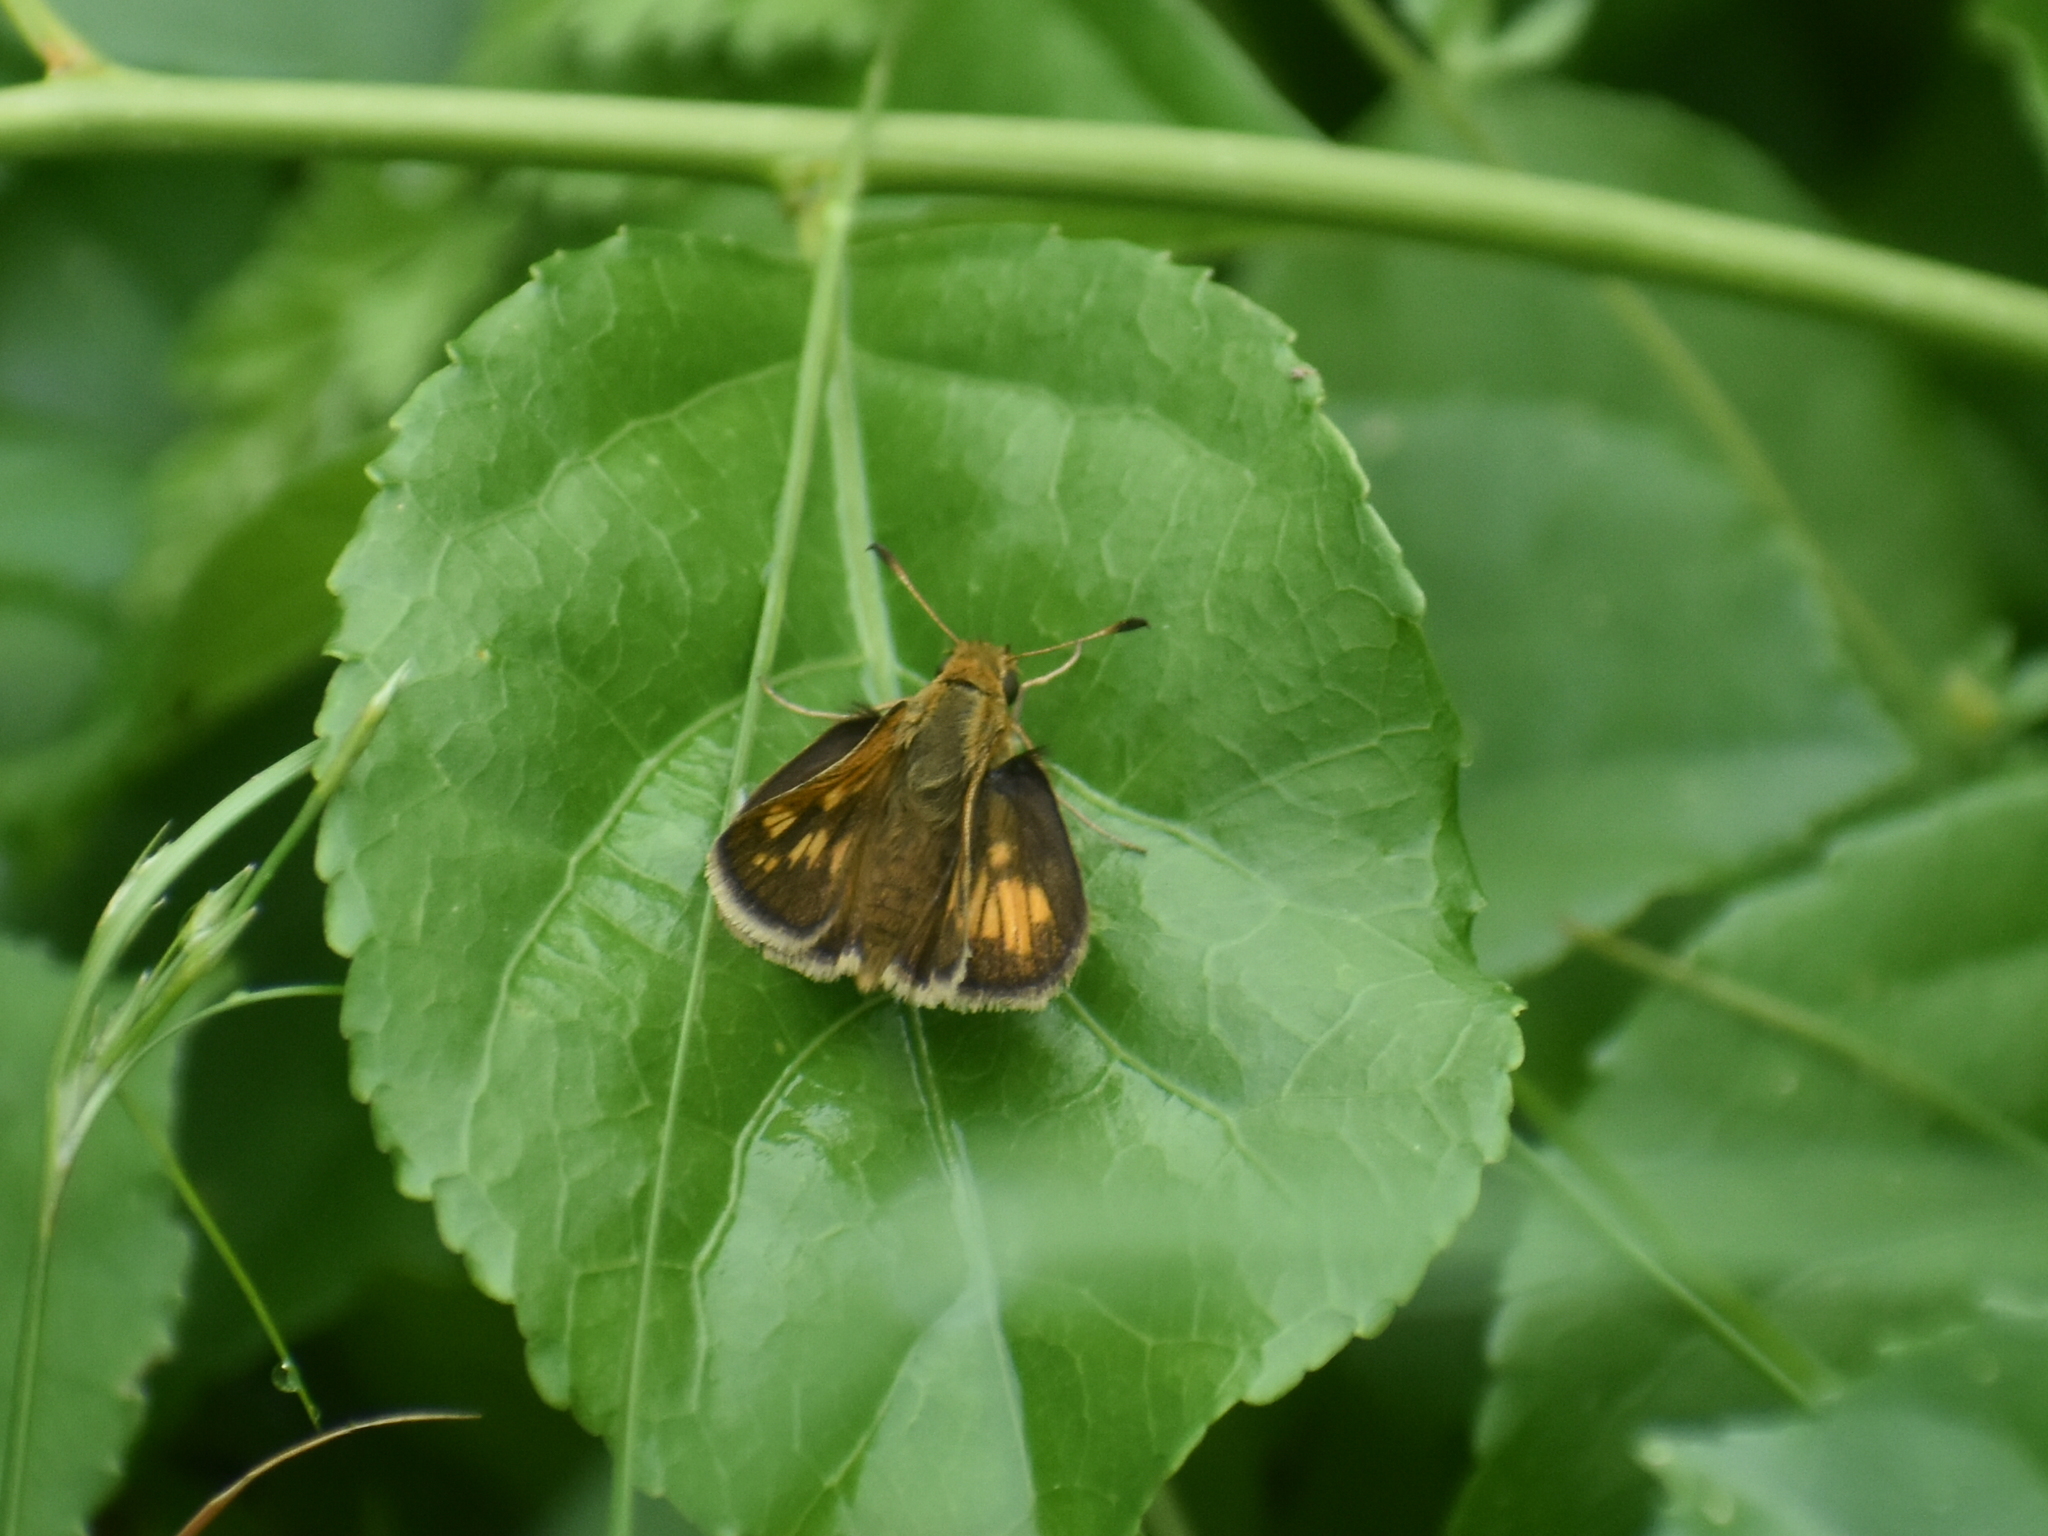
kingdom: Animalia
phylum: Arthropoda
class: Insecta
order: Lepidoptera
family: Hesperiidae
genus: Polites
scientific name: Polites coras
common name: Peck's skipper
